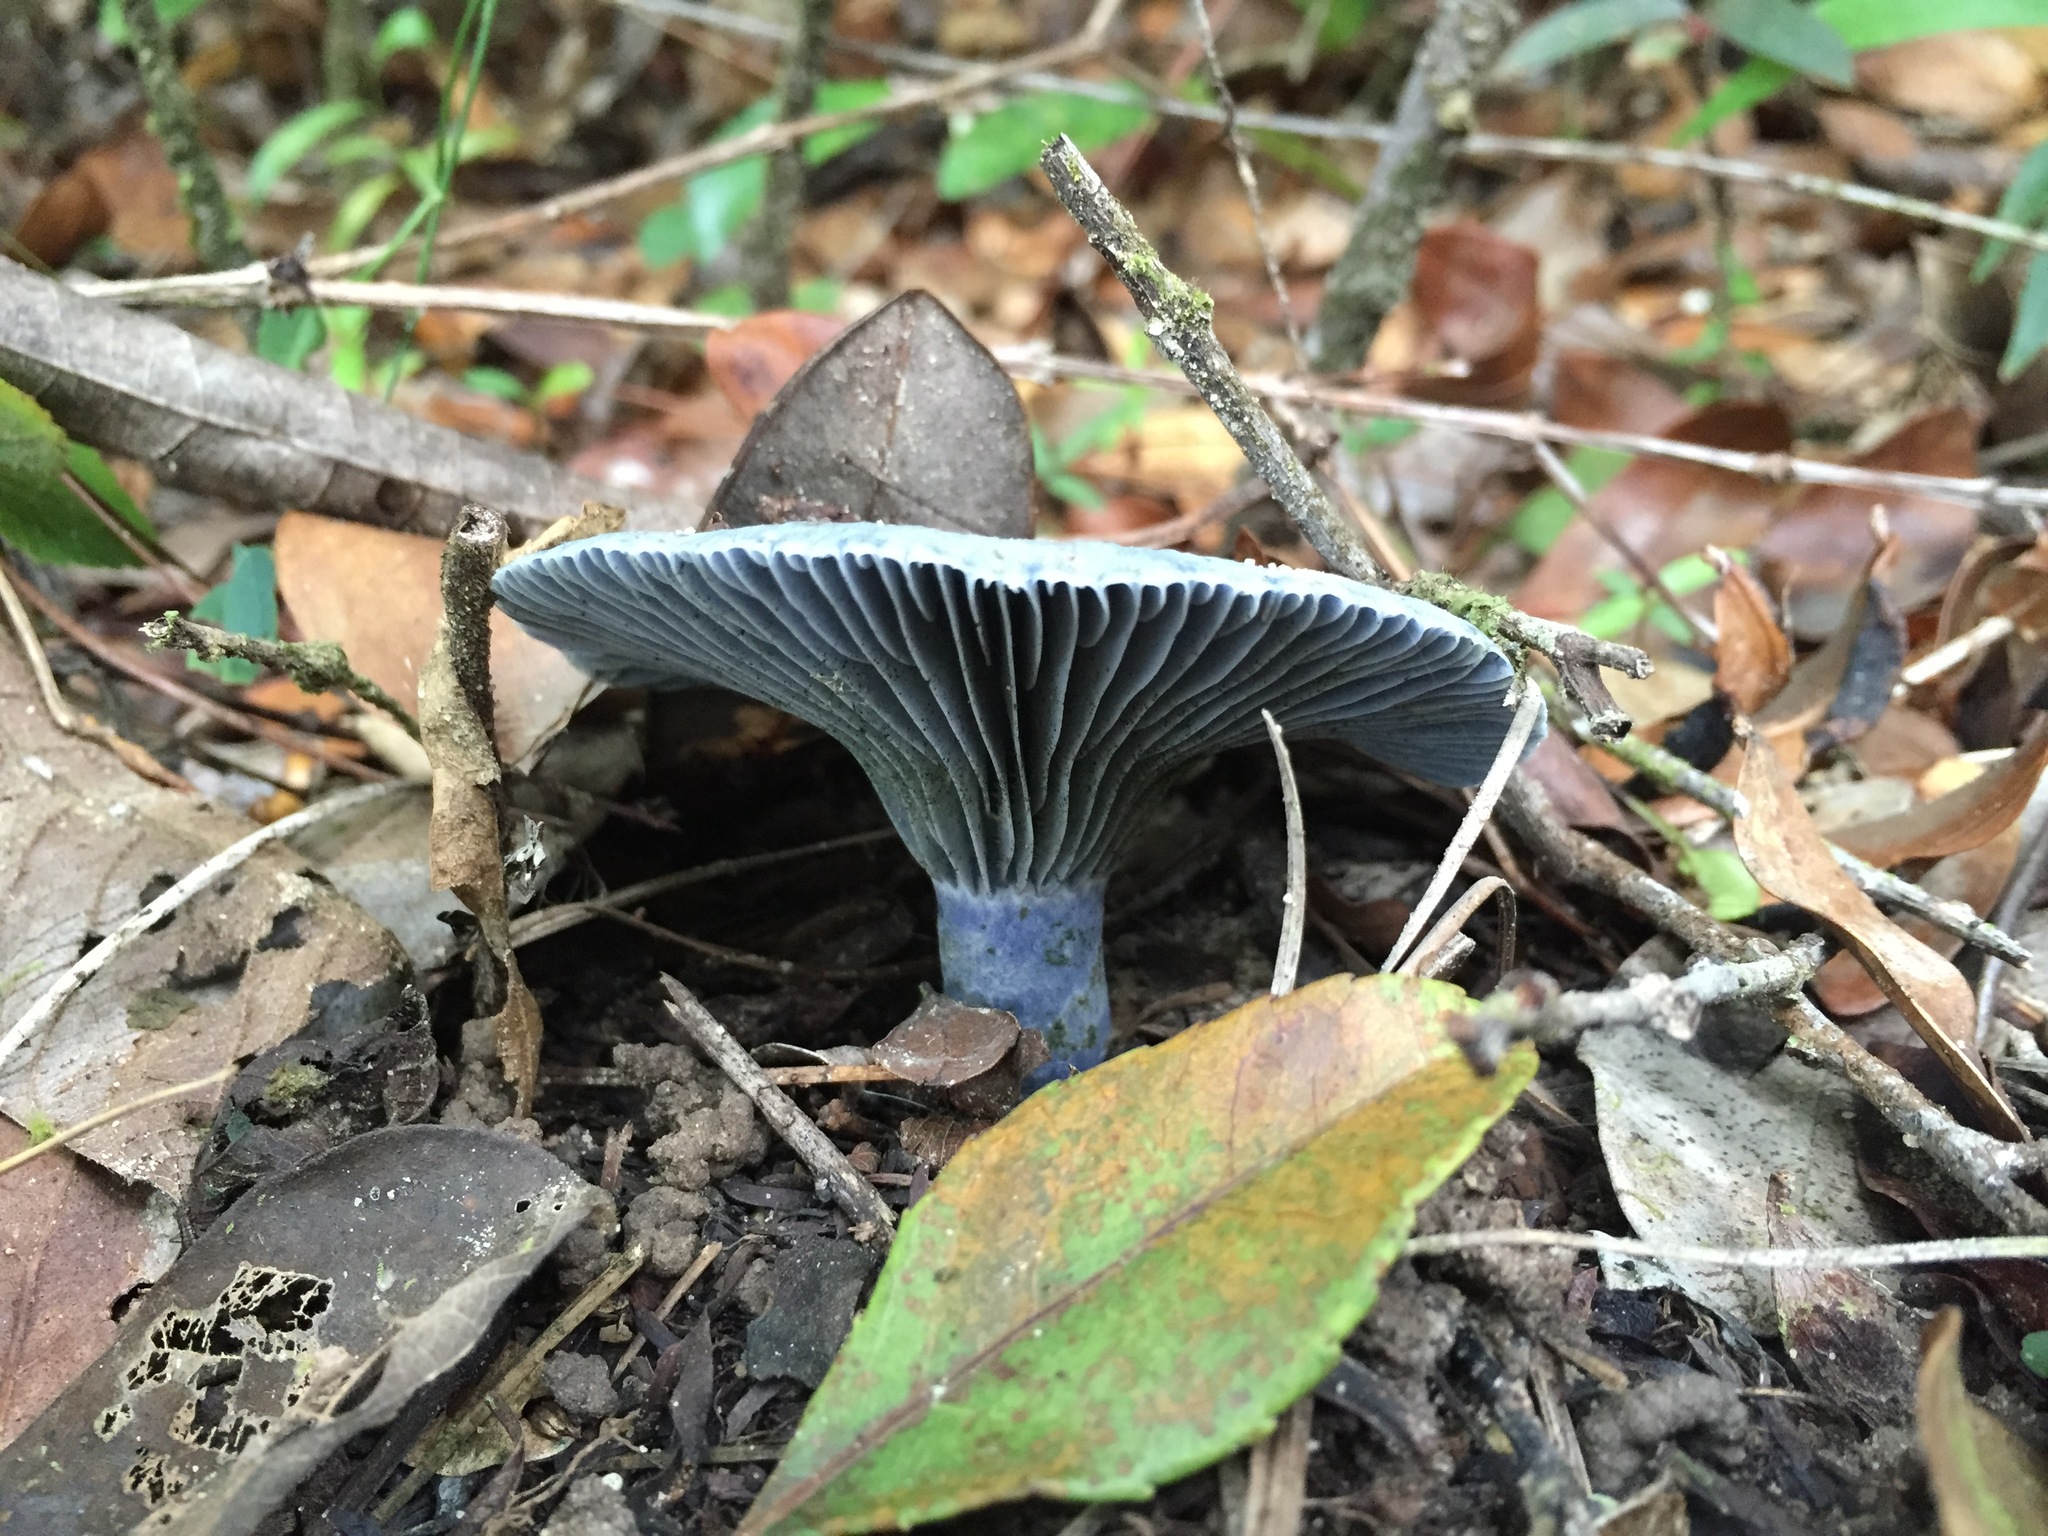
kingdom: Fungi
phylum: Basidiomycota
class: Agaricomycetes
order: Russulales
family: Russulaceae
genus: Lactarius
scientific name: Lactarius indigo
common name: Indigo milk cap
